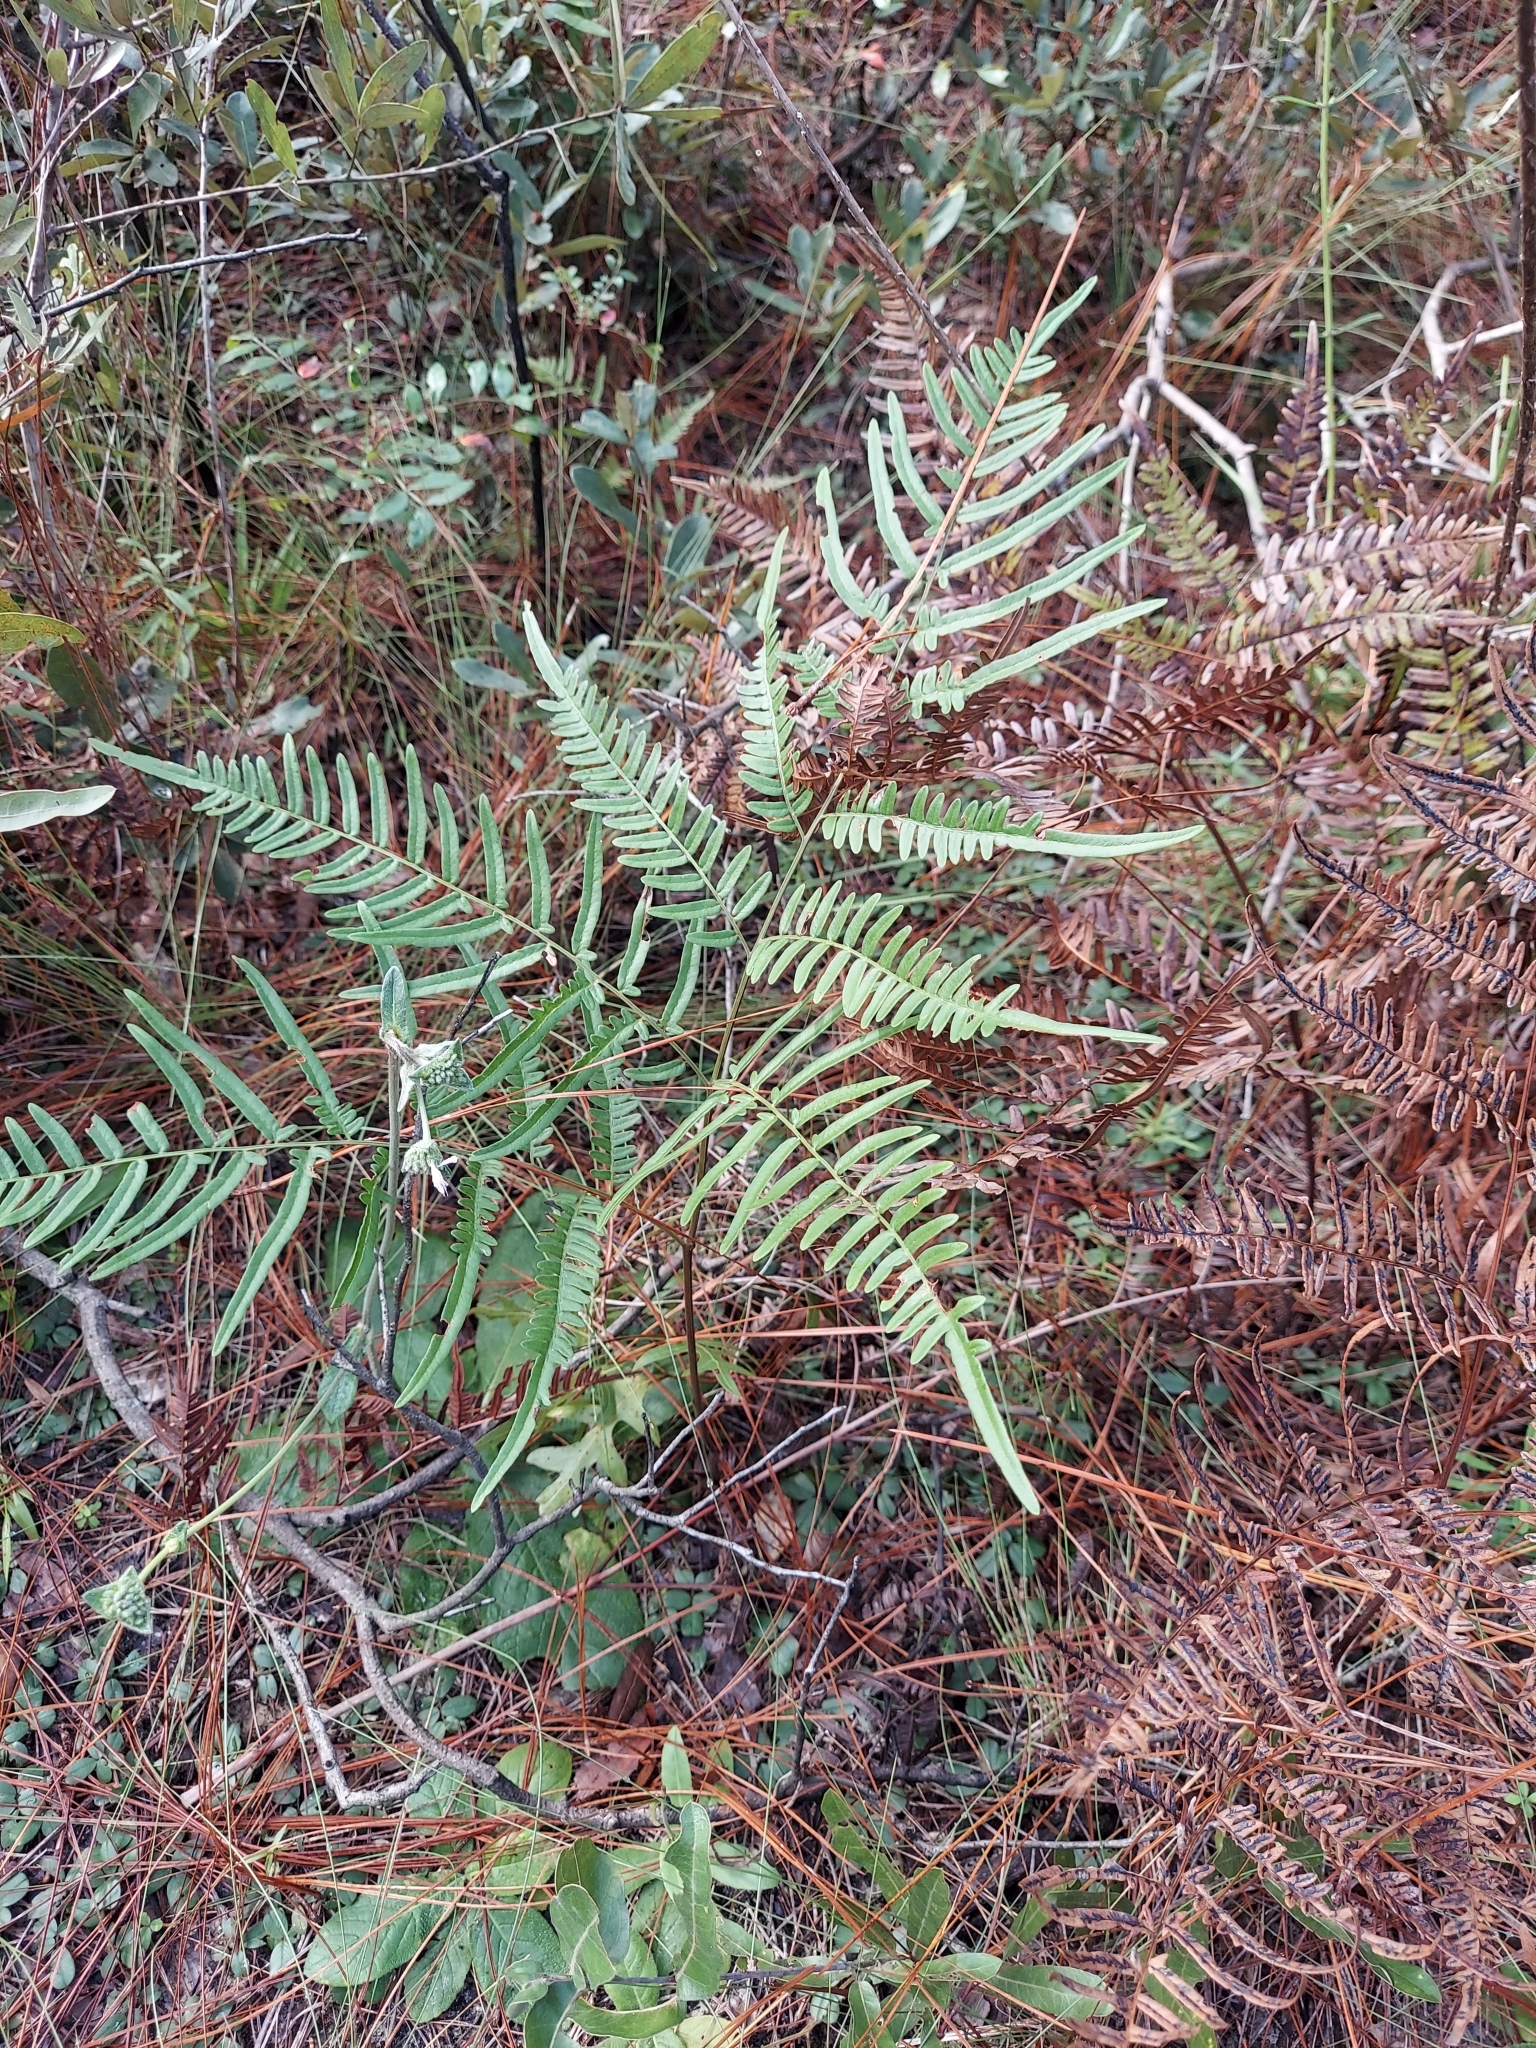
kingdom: Plantae
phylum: Tracheophyta
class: Polypodiopsida
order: Polypodiales
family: Dennstaedtiaceae
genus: Pteridium
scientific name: Pteridium
